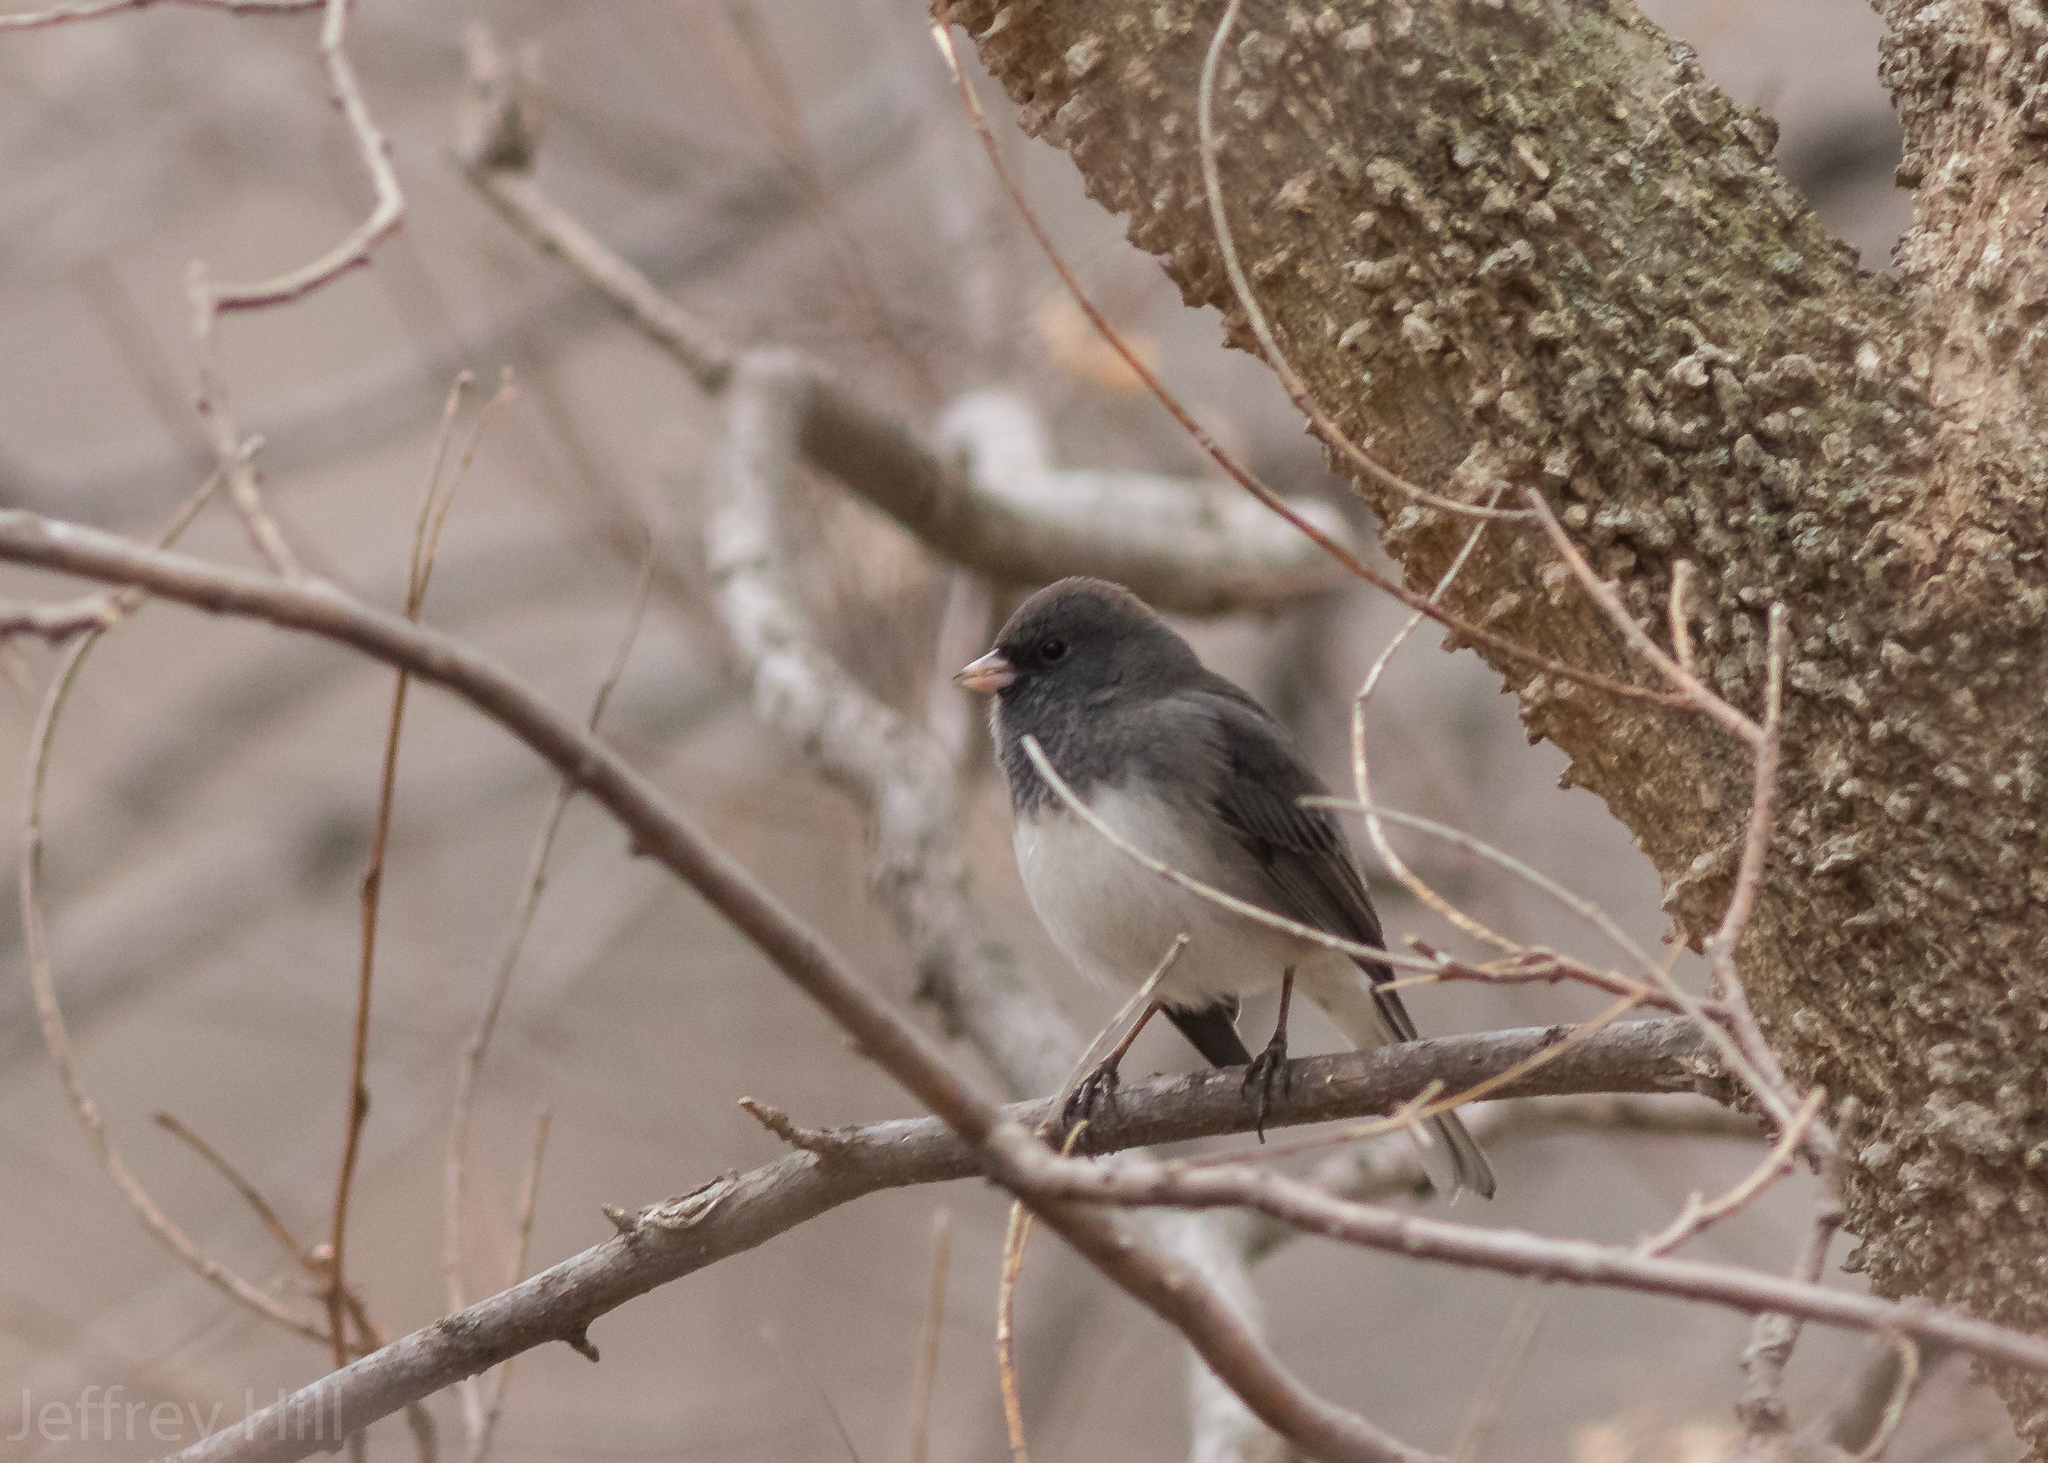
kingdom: Animalia
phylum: Chordata
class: Aves
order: Passeriformes
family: Passerellidae
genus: Junco
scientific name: Junco hyemalis
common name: Dark-eyed junco
